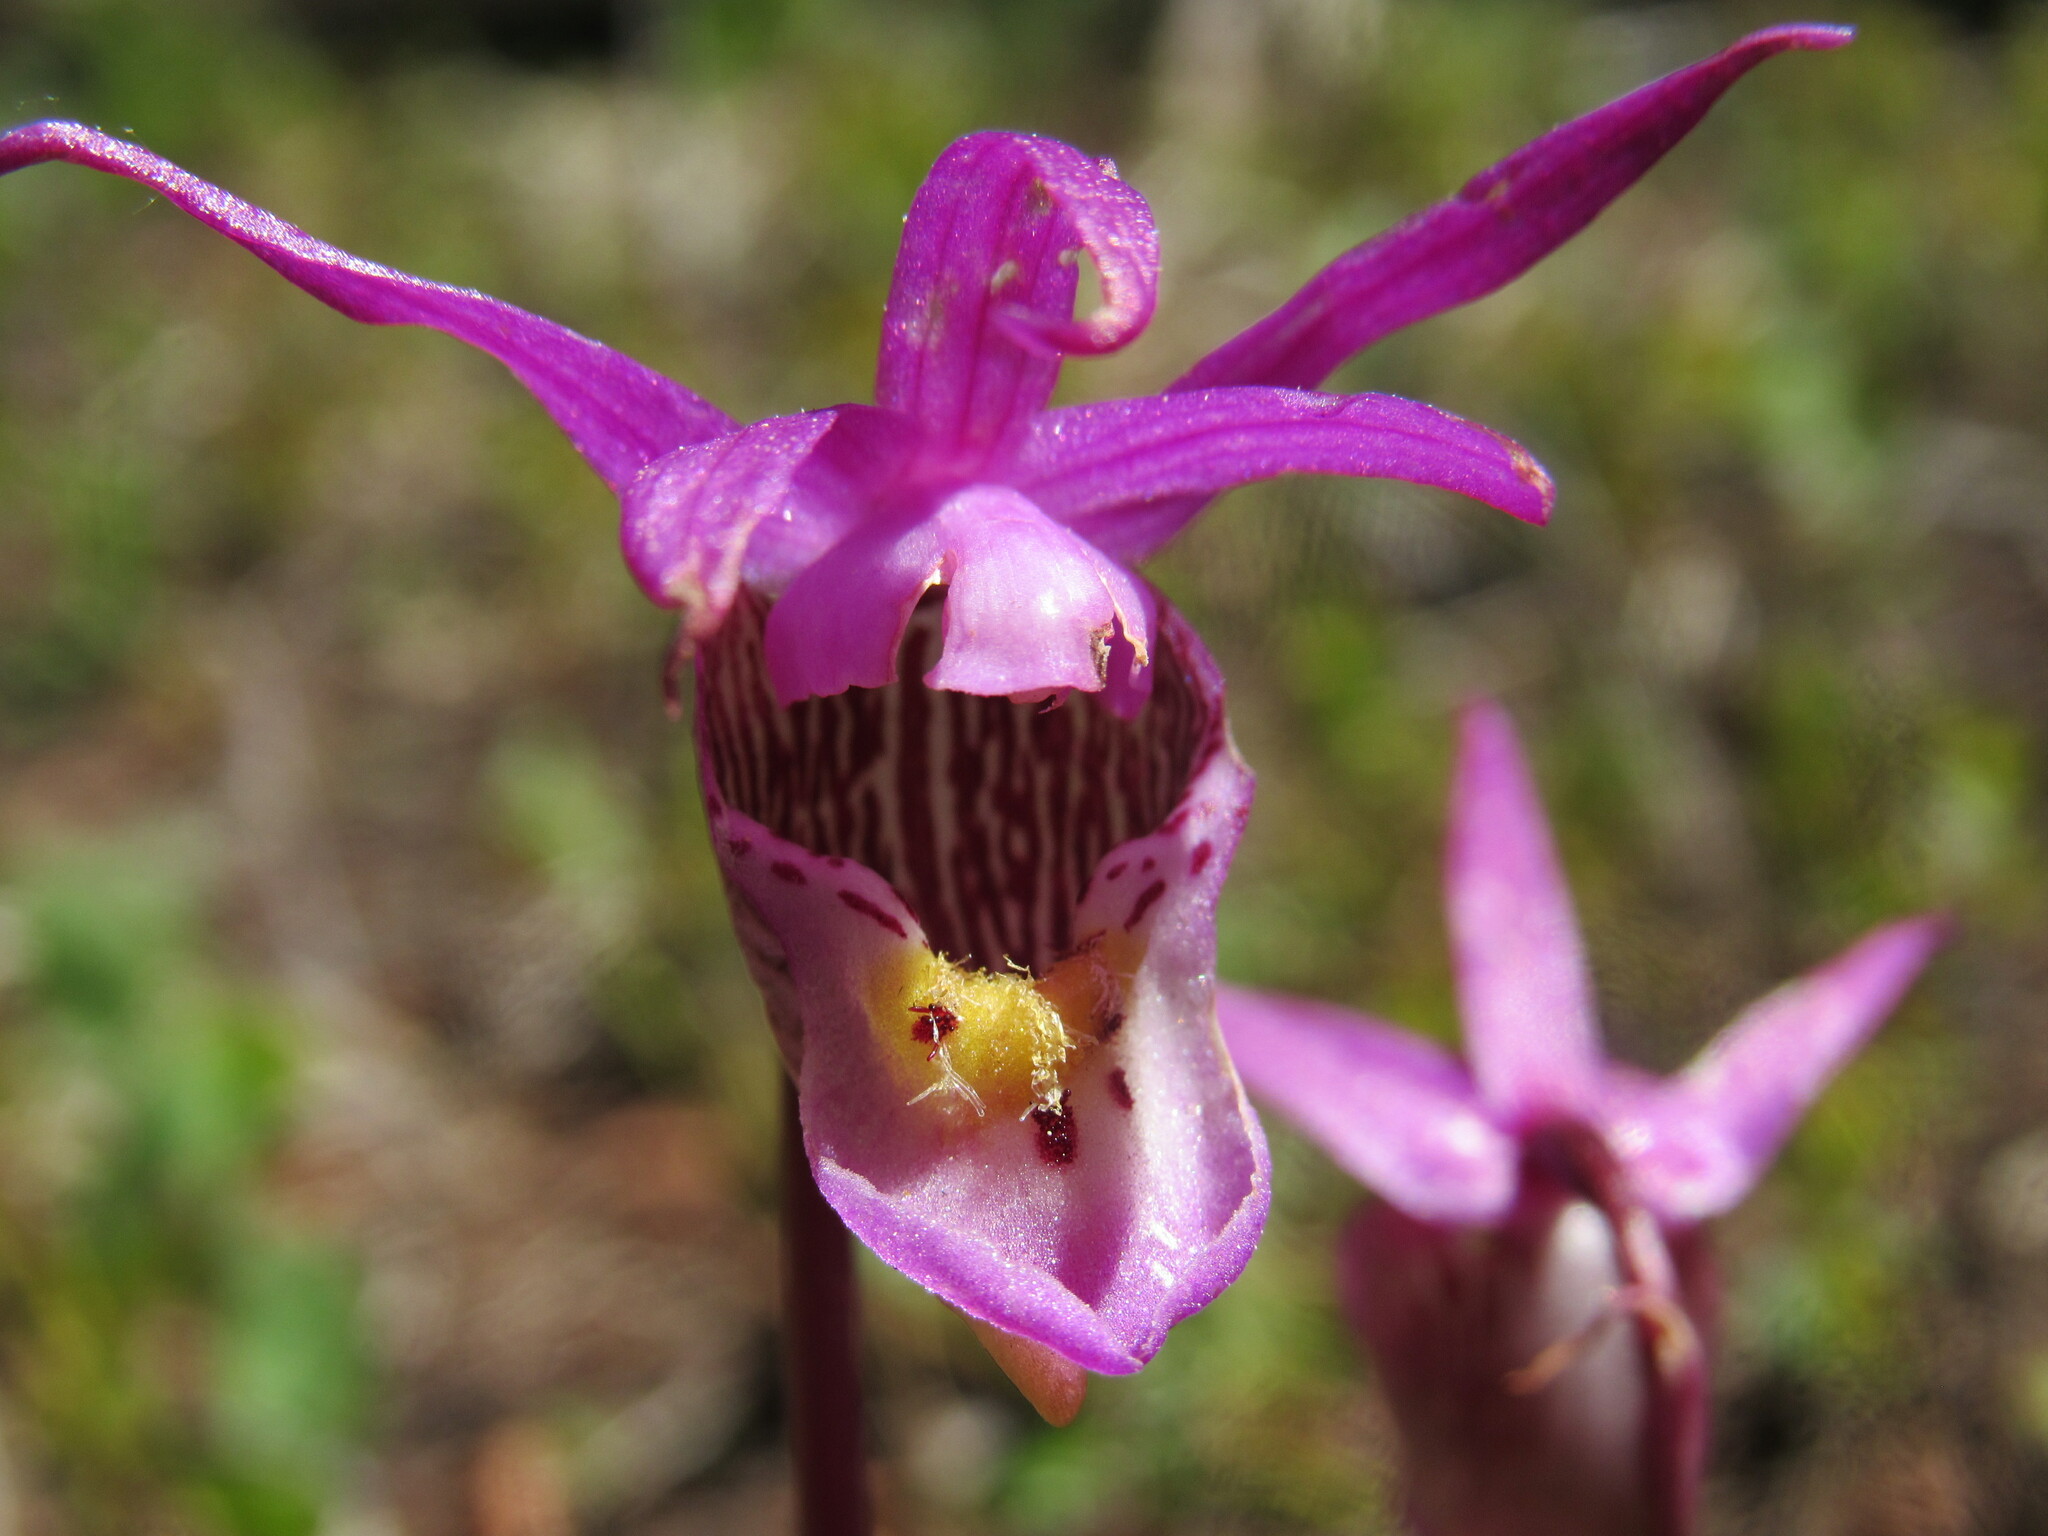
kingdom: Plantae
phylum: Tracheophyta
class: Liliopsida
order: Asparagales
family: Orchidaceae
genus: Calypso
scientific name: Calypso bulbosa
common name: Calypso
